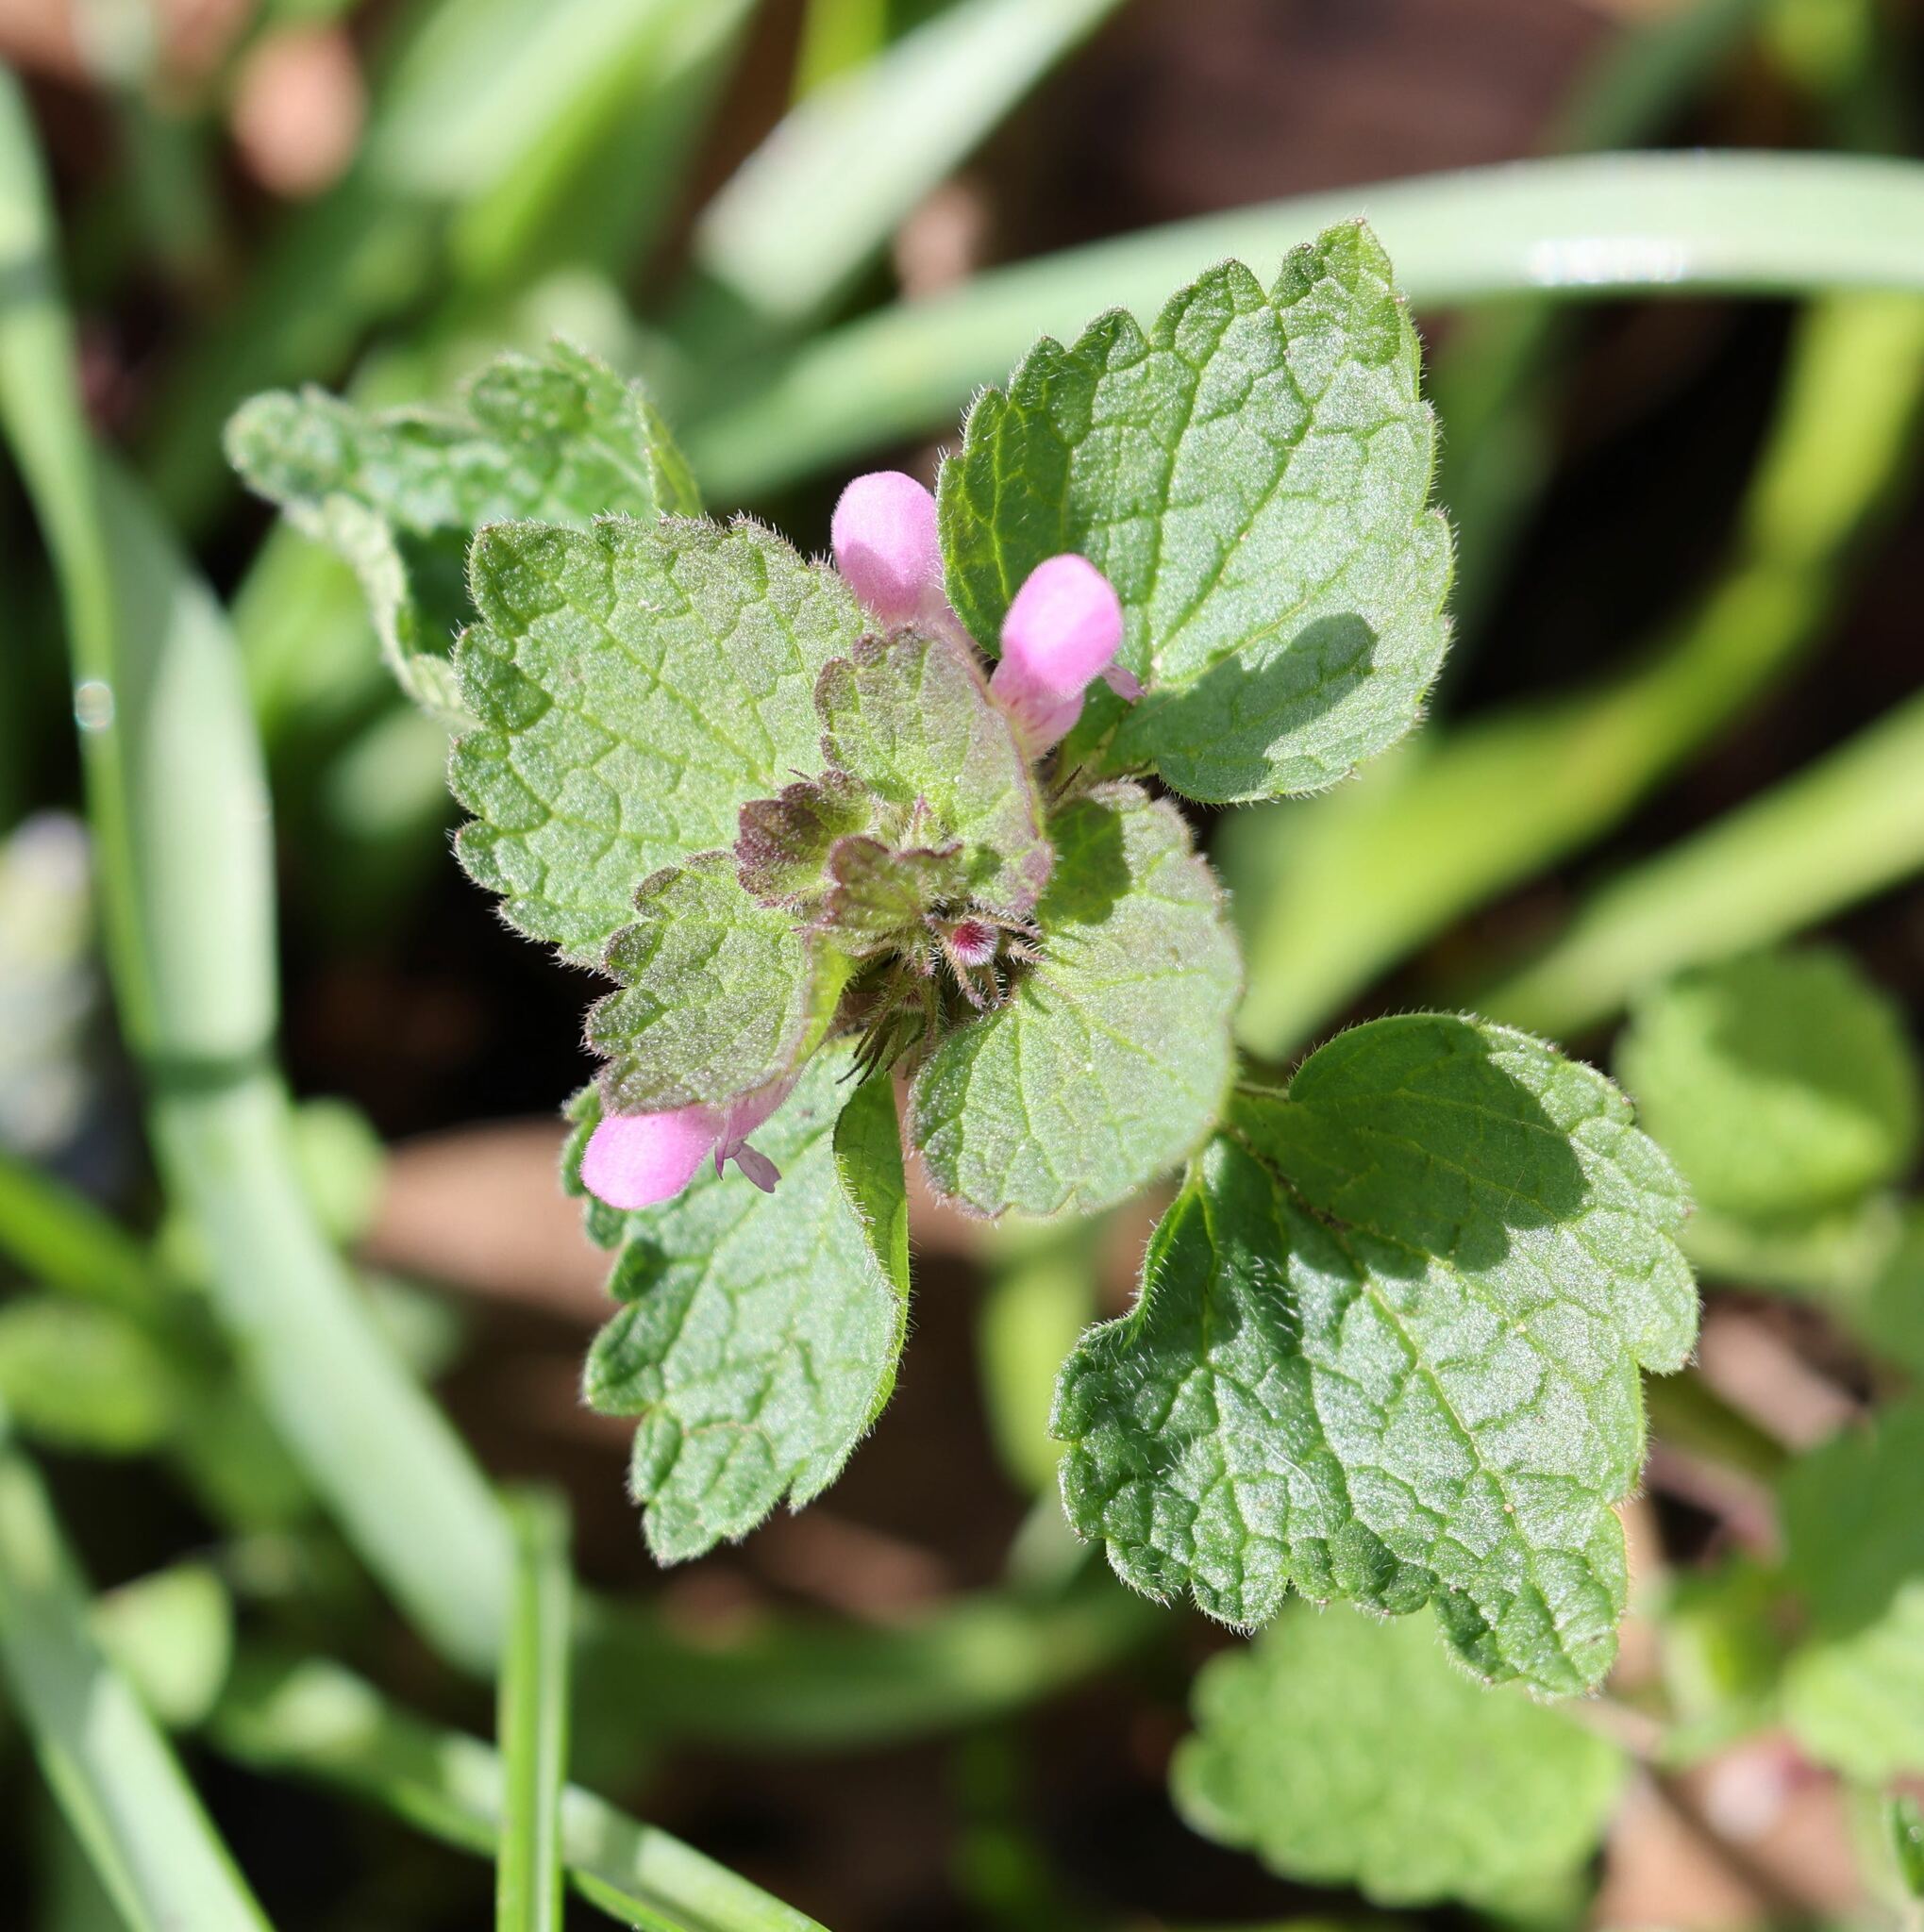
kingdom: Plantae
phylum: Tracheophyta
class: Magnoliopsida
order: Lamiales
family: Lamiaceae
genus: Lamium
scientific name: Lamium purpureum
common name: Red dead-nettle
